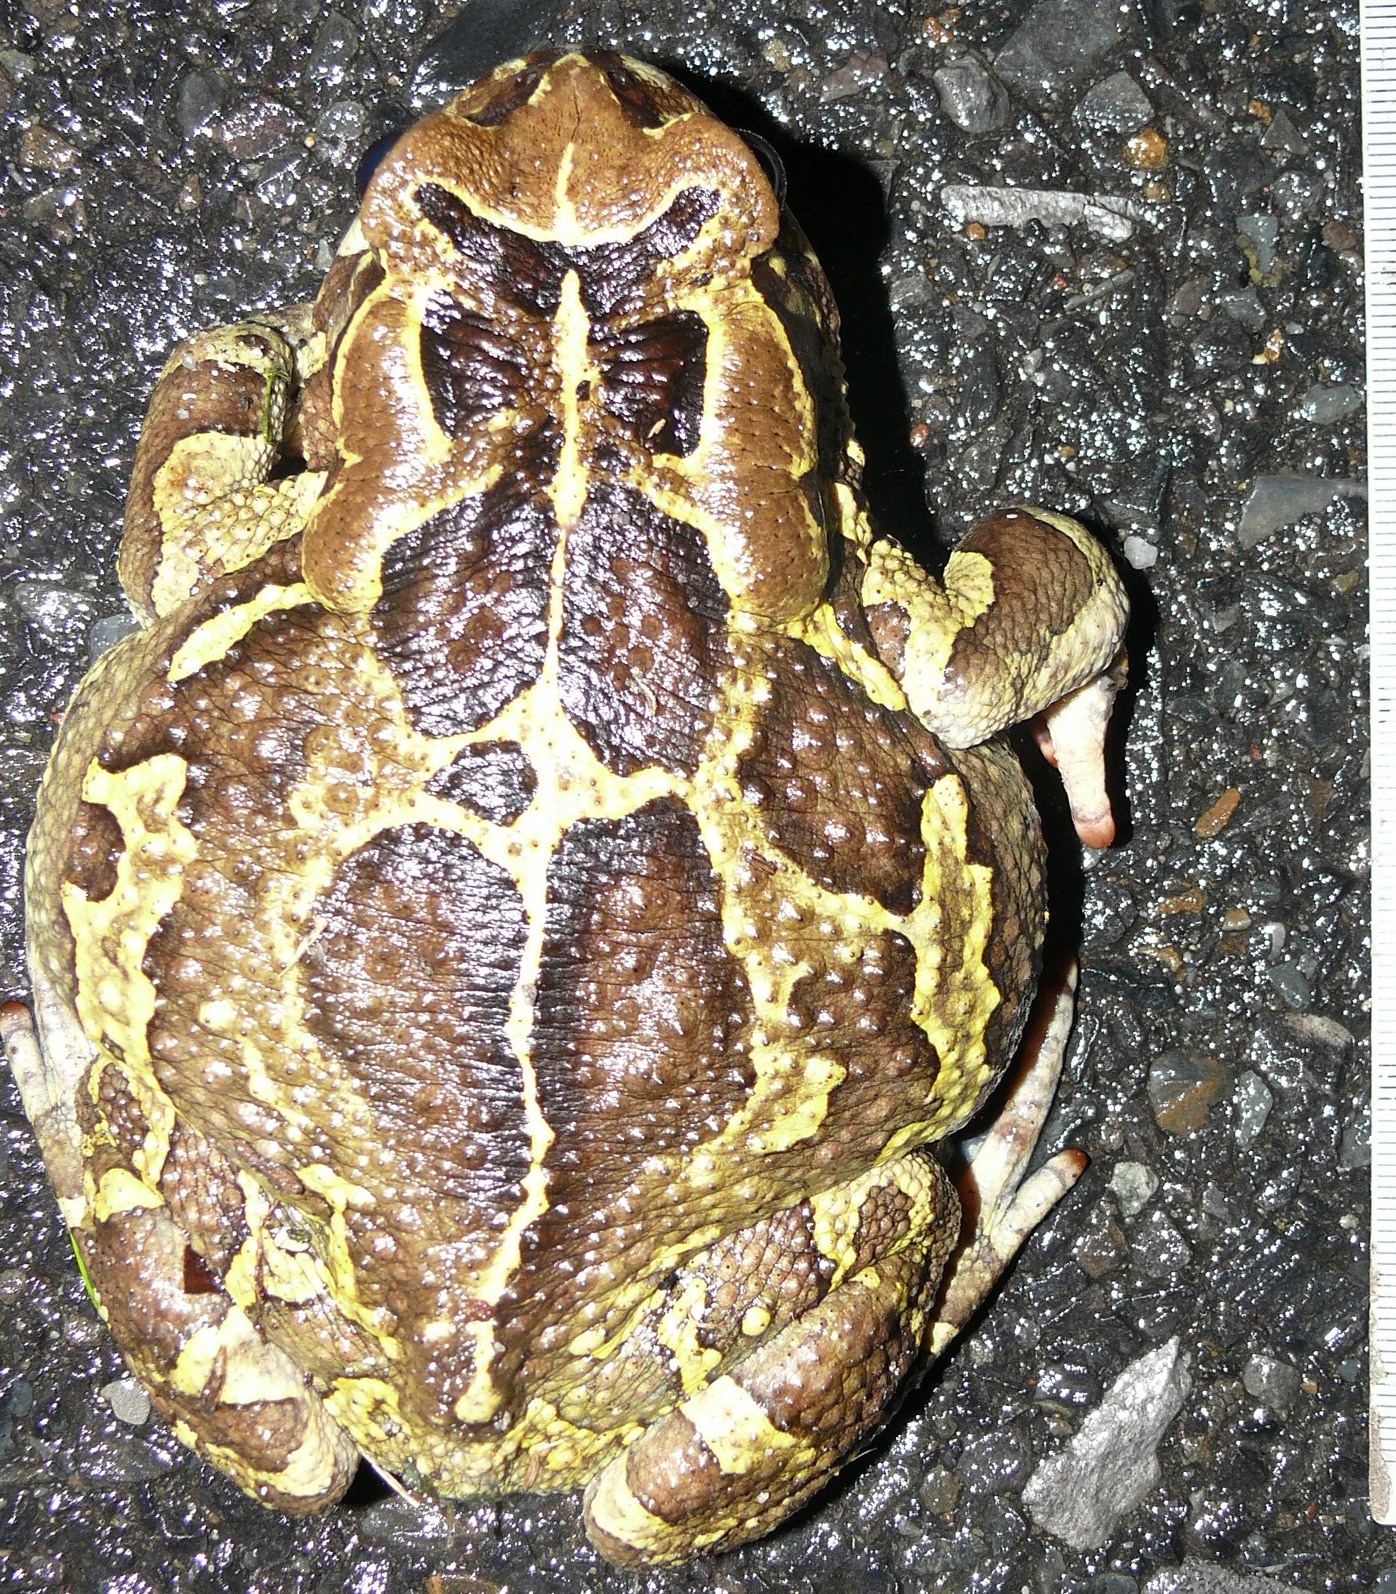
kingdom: Animalia
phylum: Chordata
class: Amphibia
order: Anura
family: Bufonidae
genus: Sclerophrys
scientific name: Sclerophrys pantherina
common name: Panther toad
